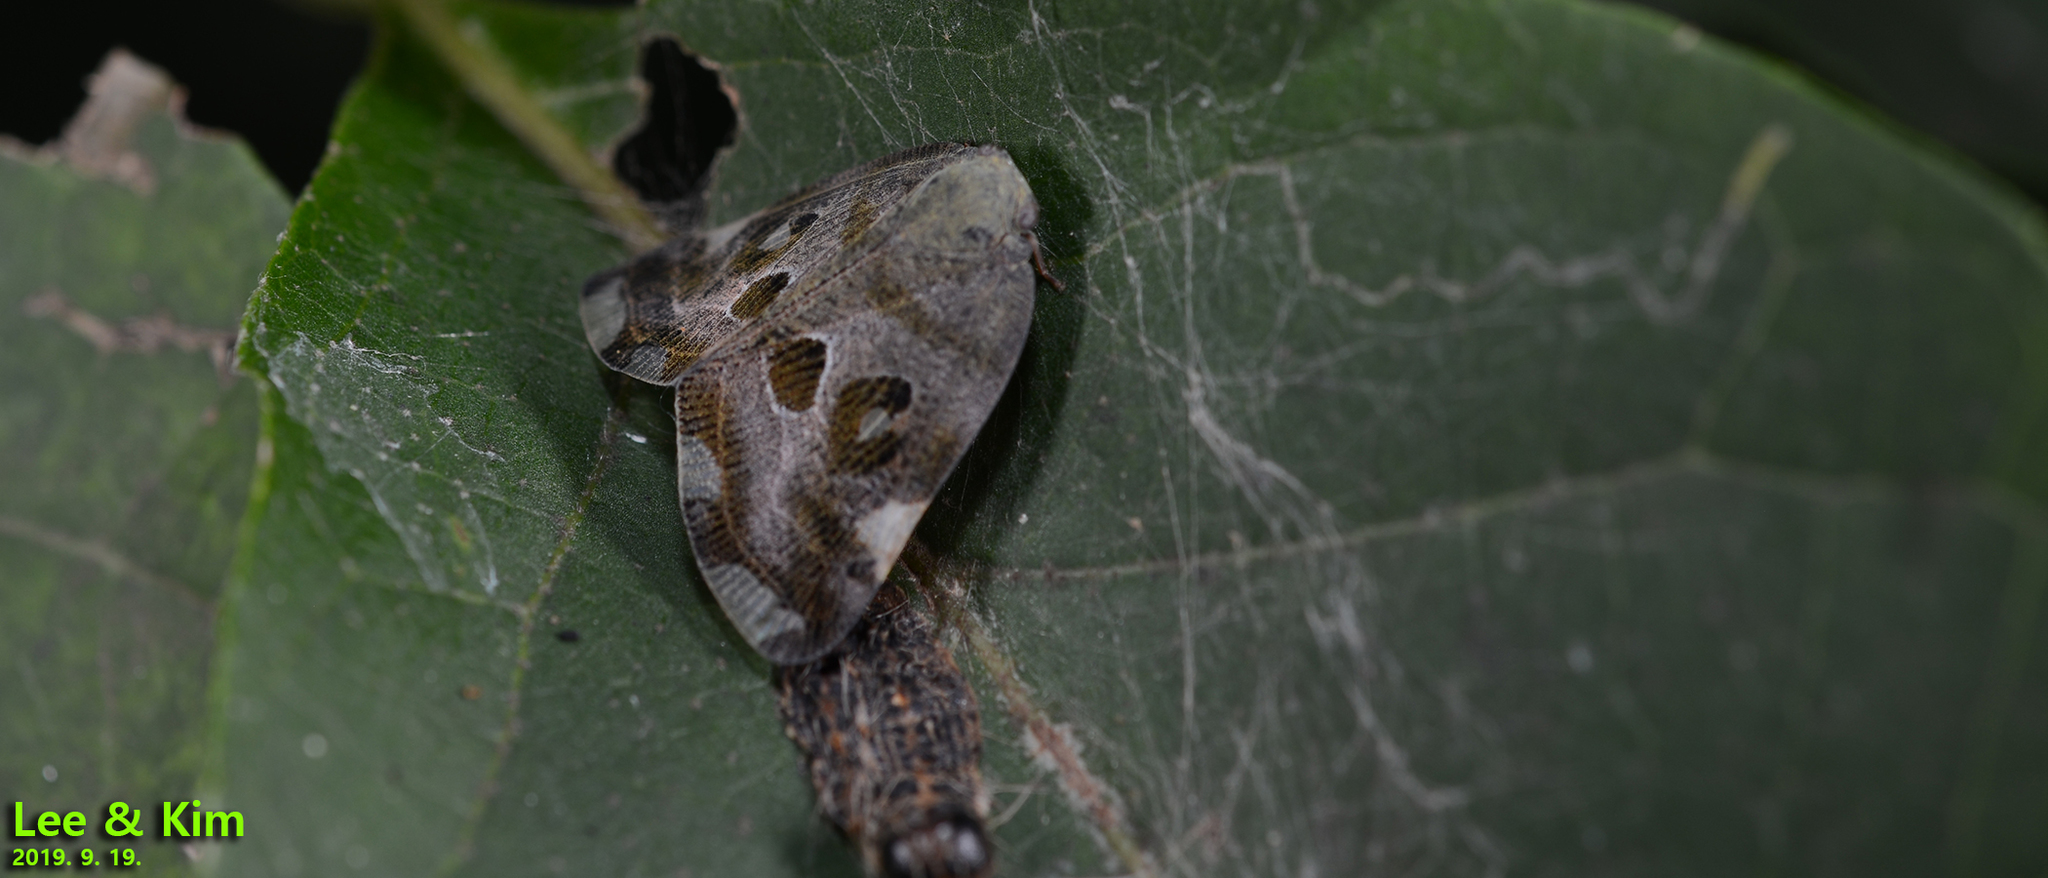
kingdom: Animalia
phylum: Arthropoda
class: Insecta
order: Hemiptera
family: Ricaniidae
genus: Ricania
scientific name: Ricania speculum
